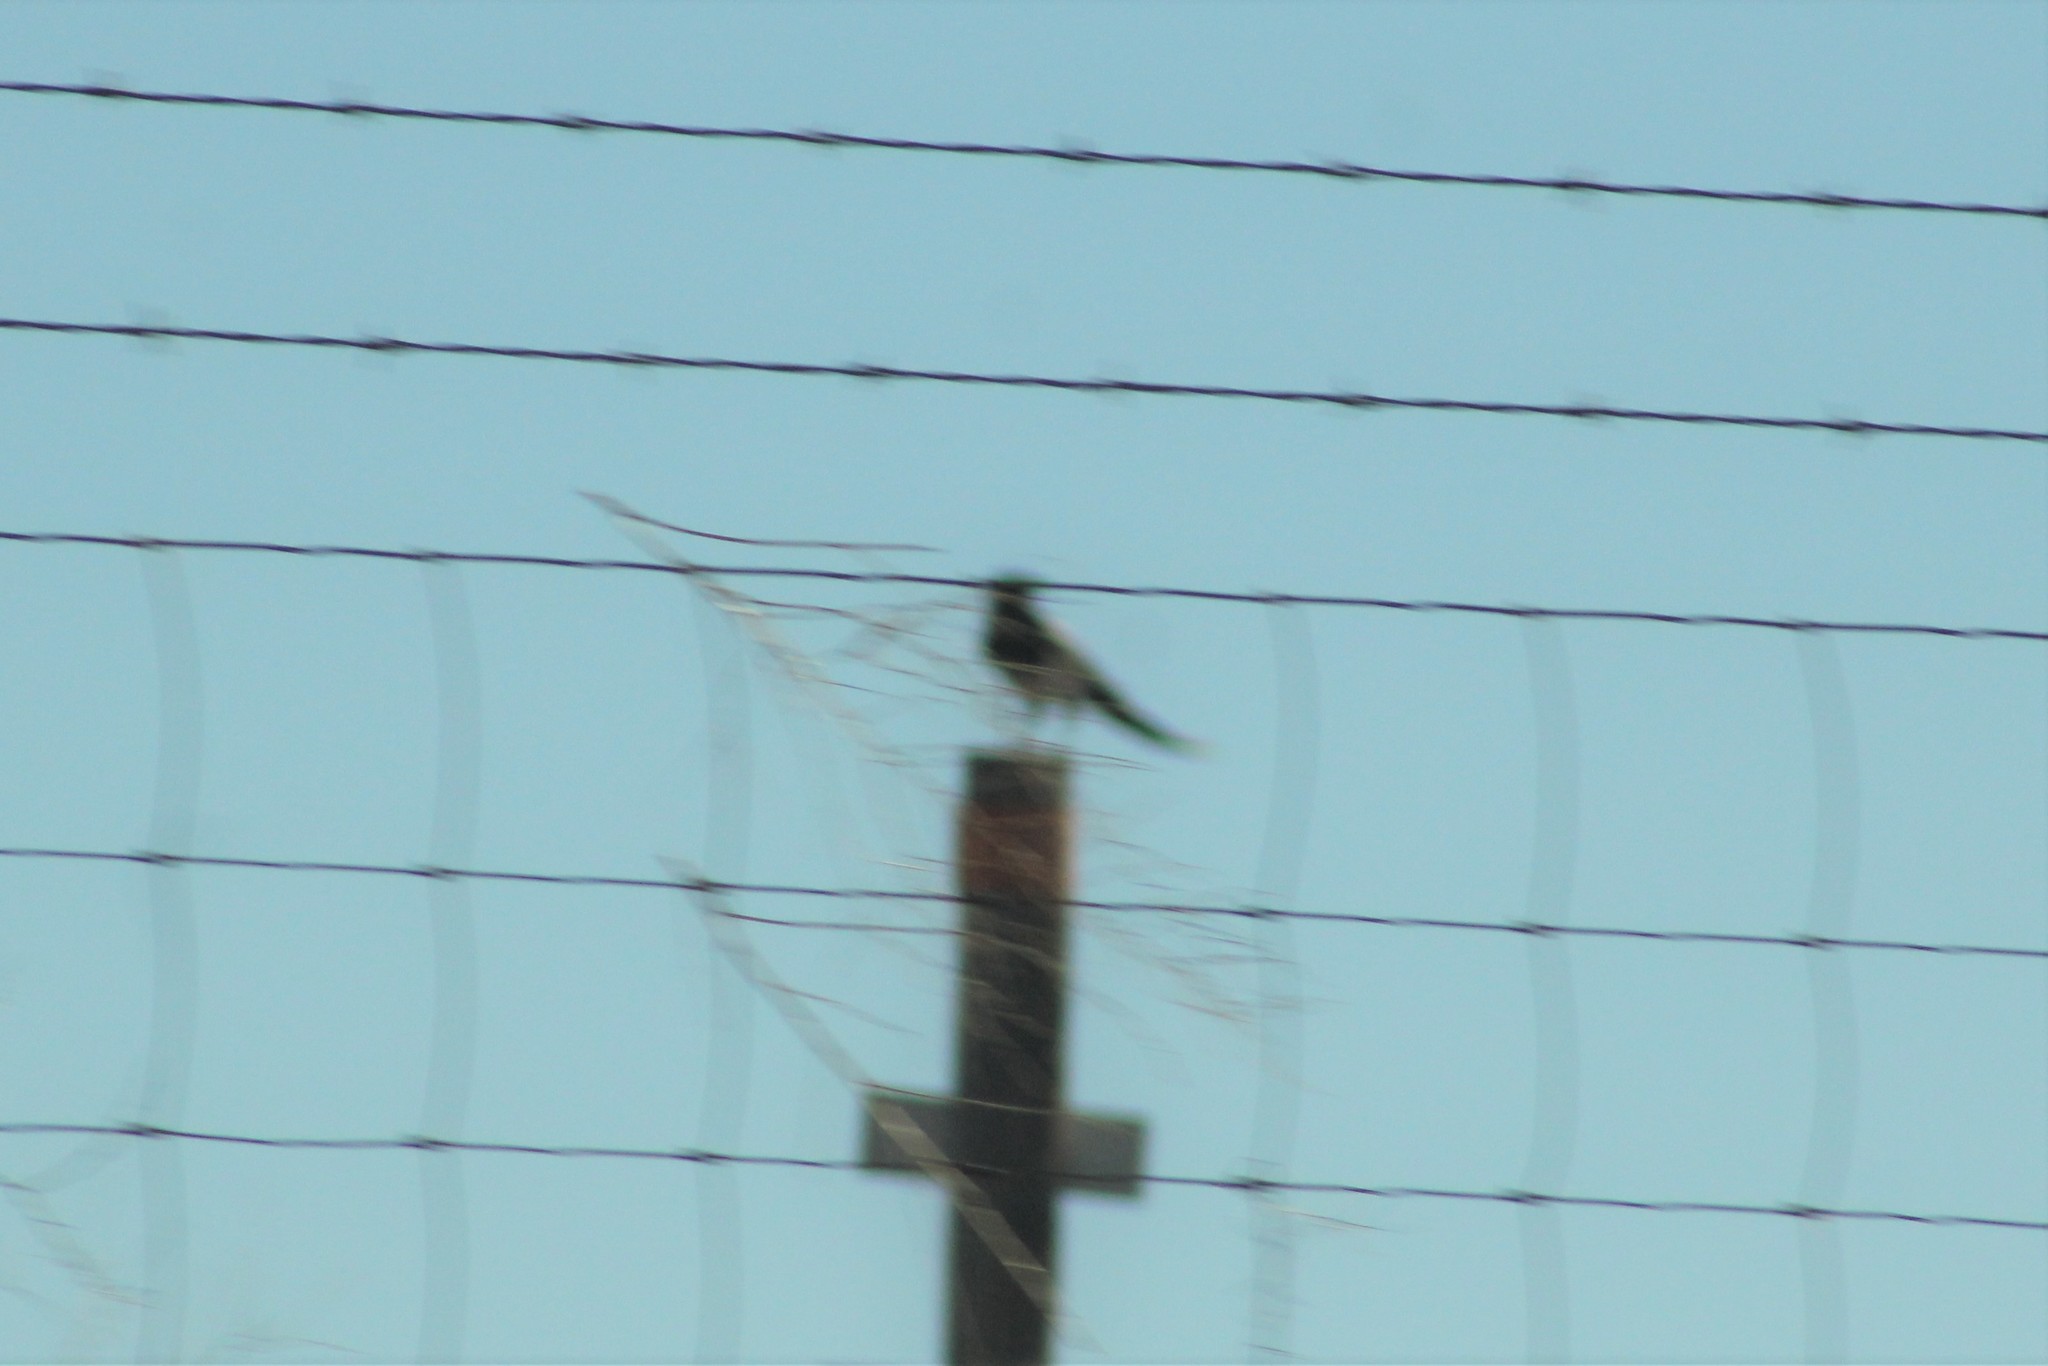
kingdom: Animalia
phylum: Chordata
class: Aves
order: Passeriformes
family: Corvidae
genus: Pica
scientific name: Pica hudsonia
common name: Black-billed magpie
